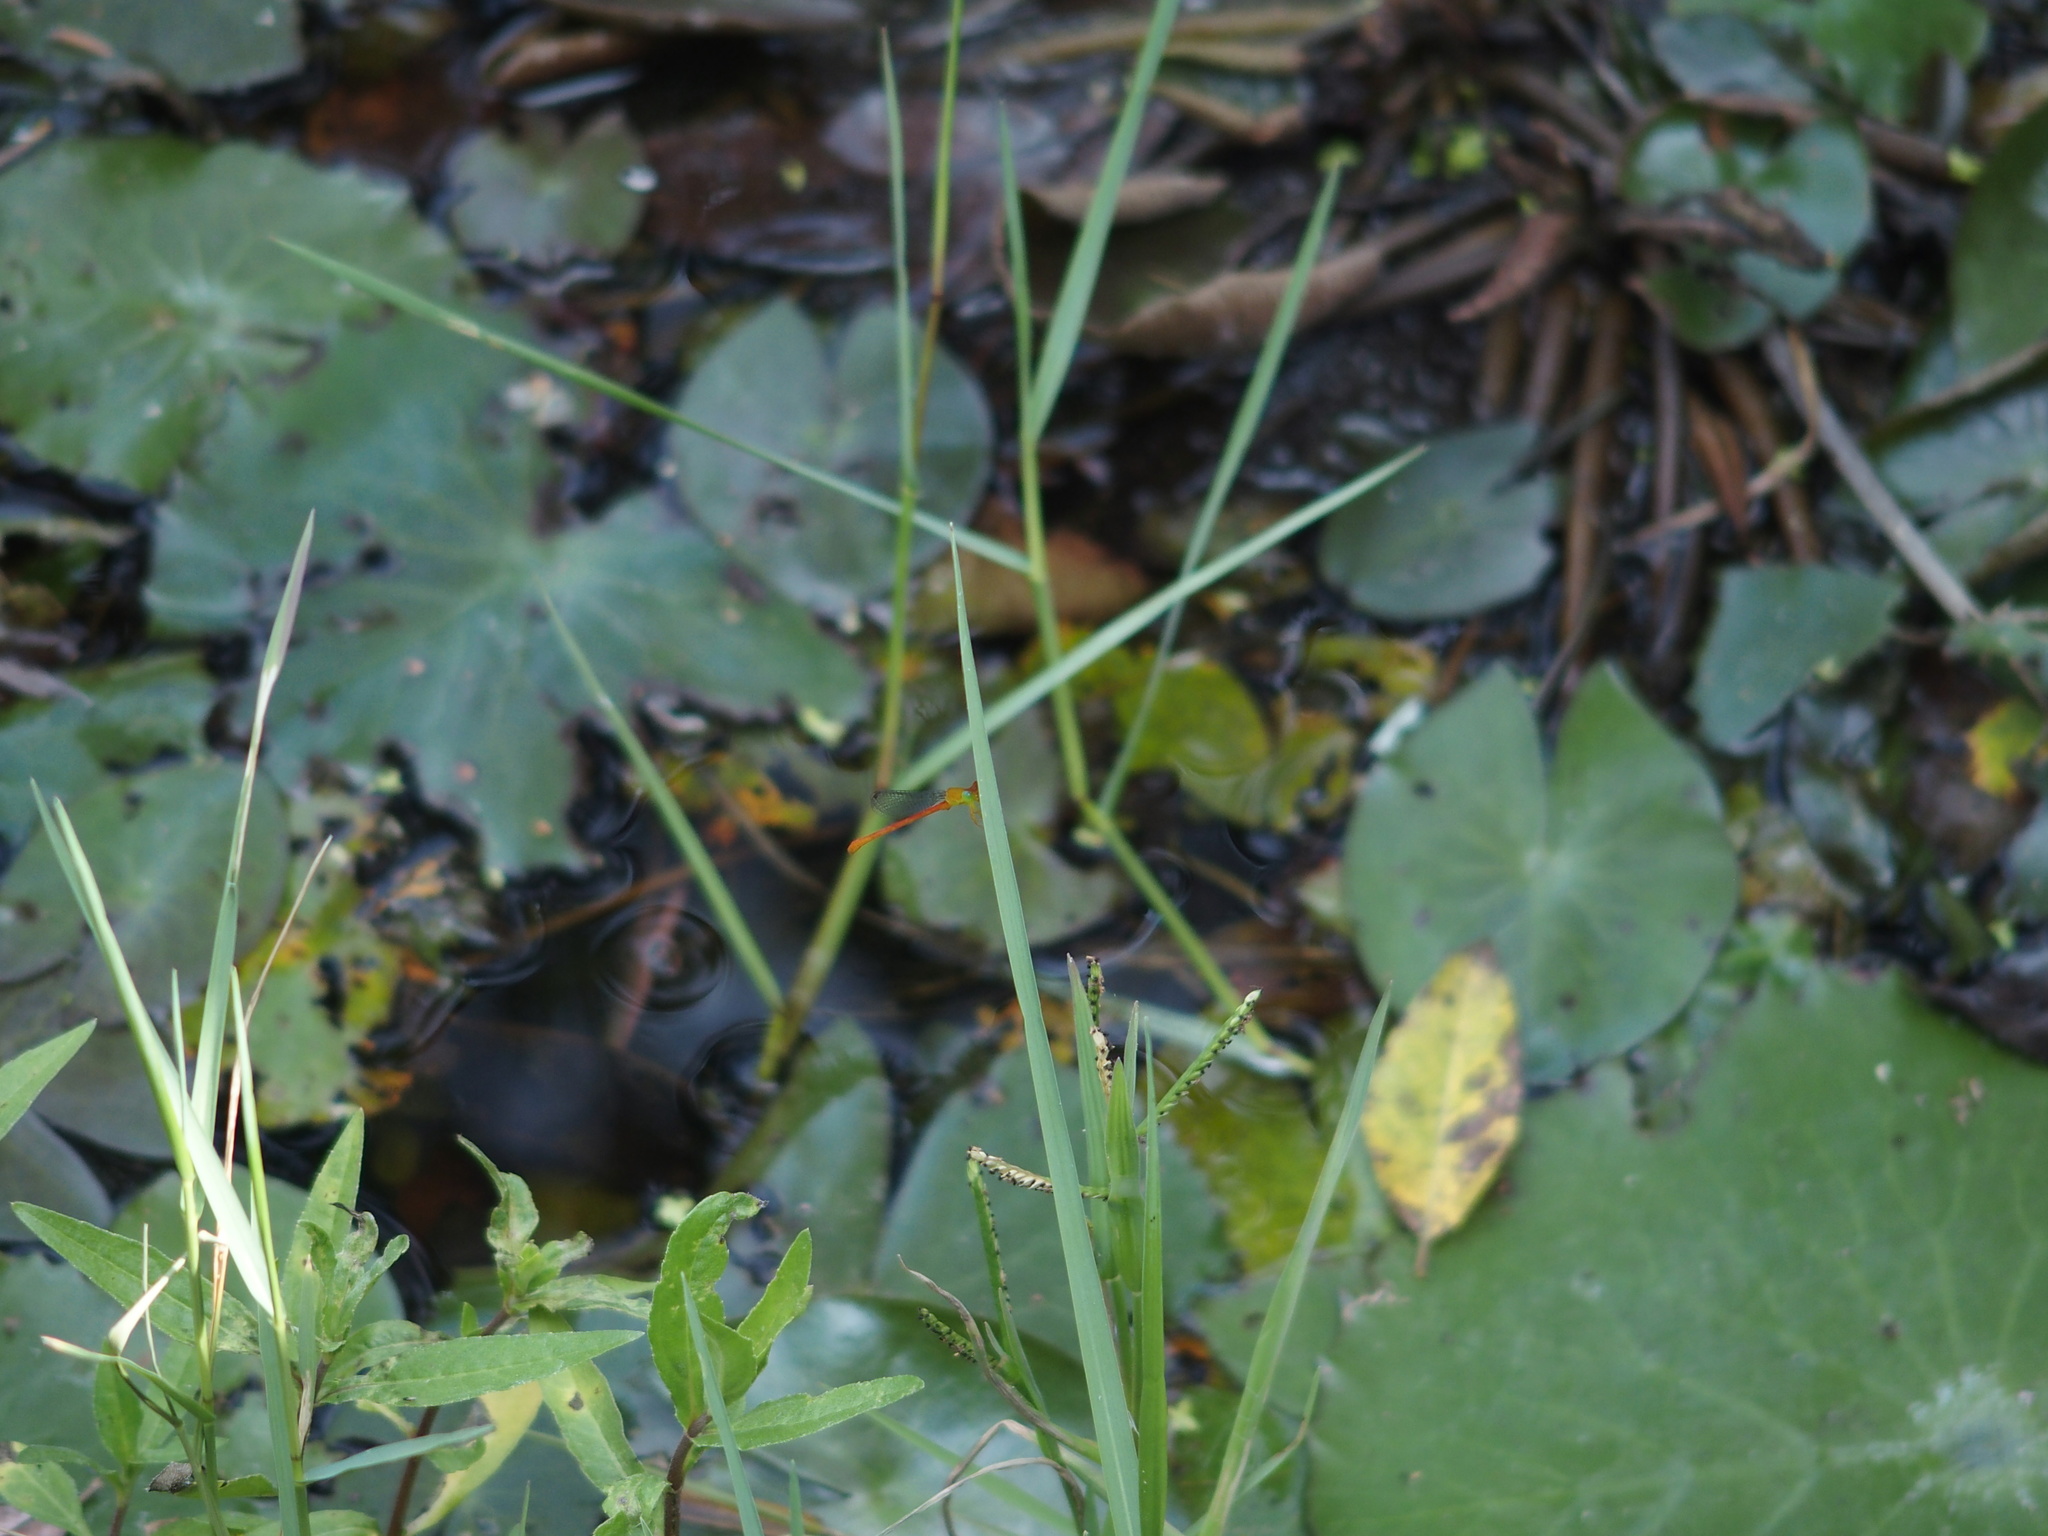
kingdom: Animalia
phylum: Arthropoda
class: Insecta
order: Odonata
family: Coenagrionidae
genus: Ceriagrion
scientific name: Ceriagrion auranticum
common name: Orange-tailed sprite
